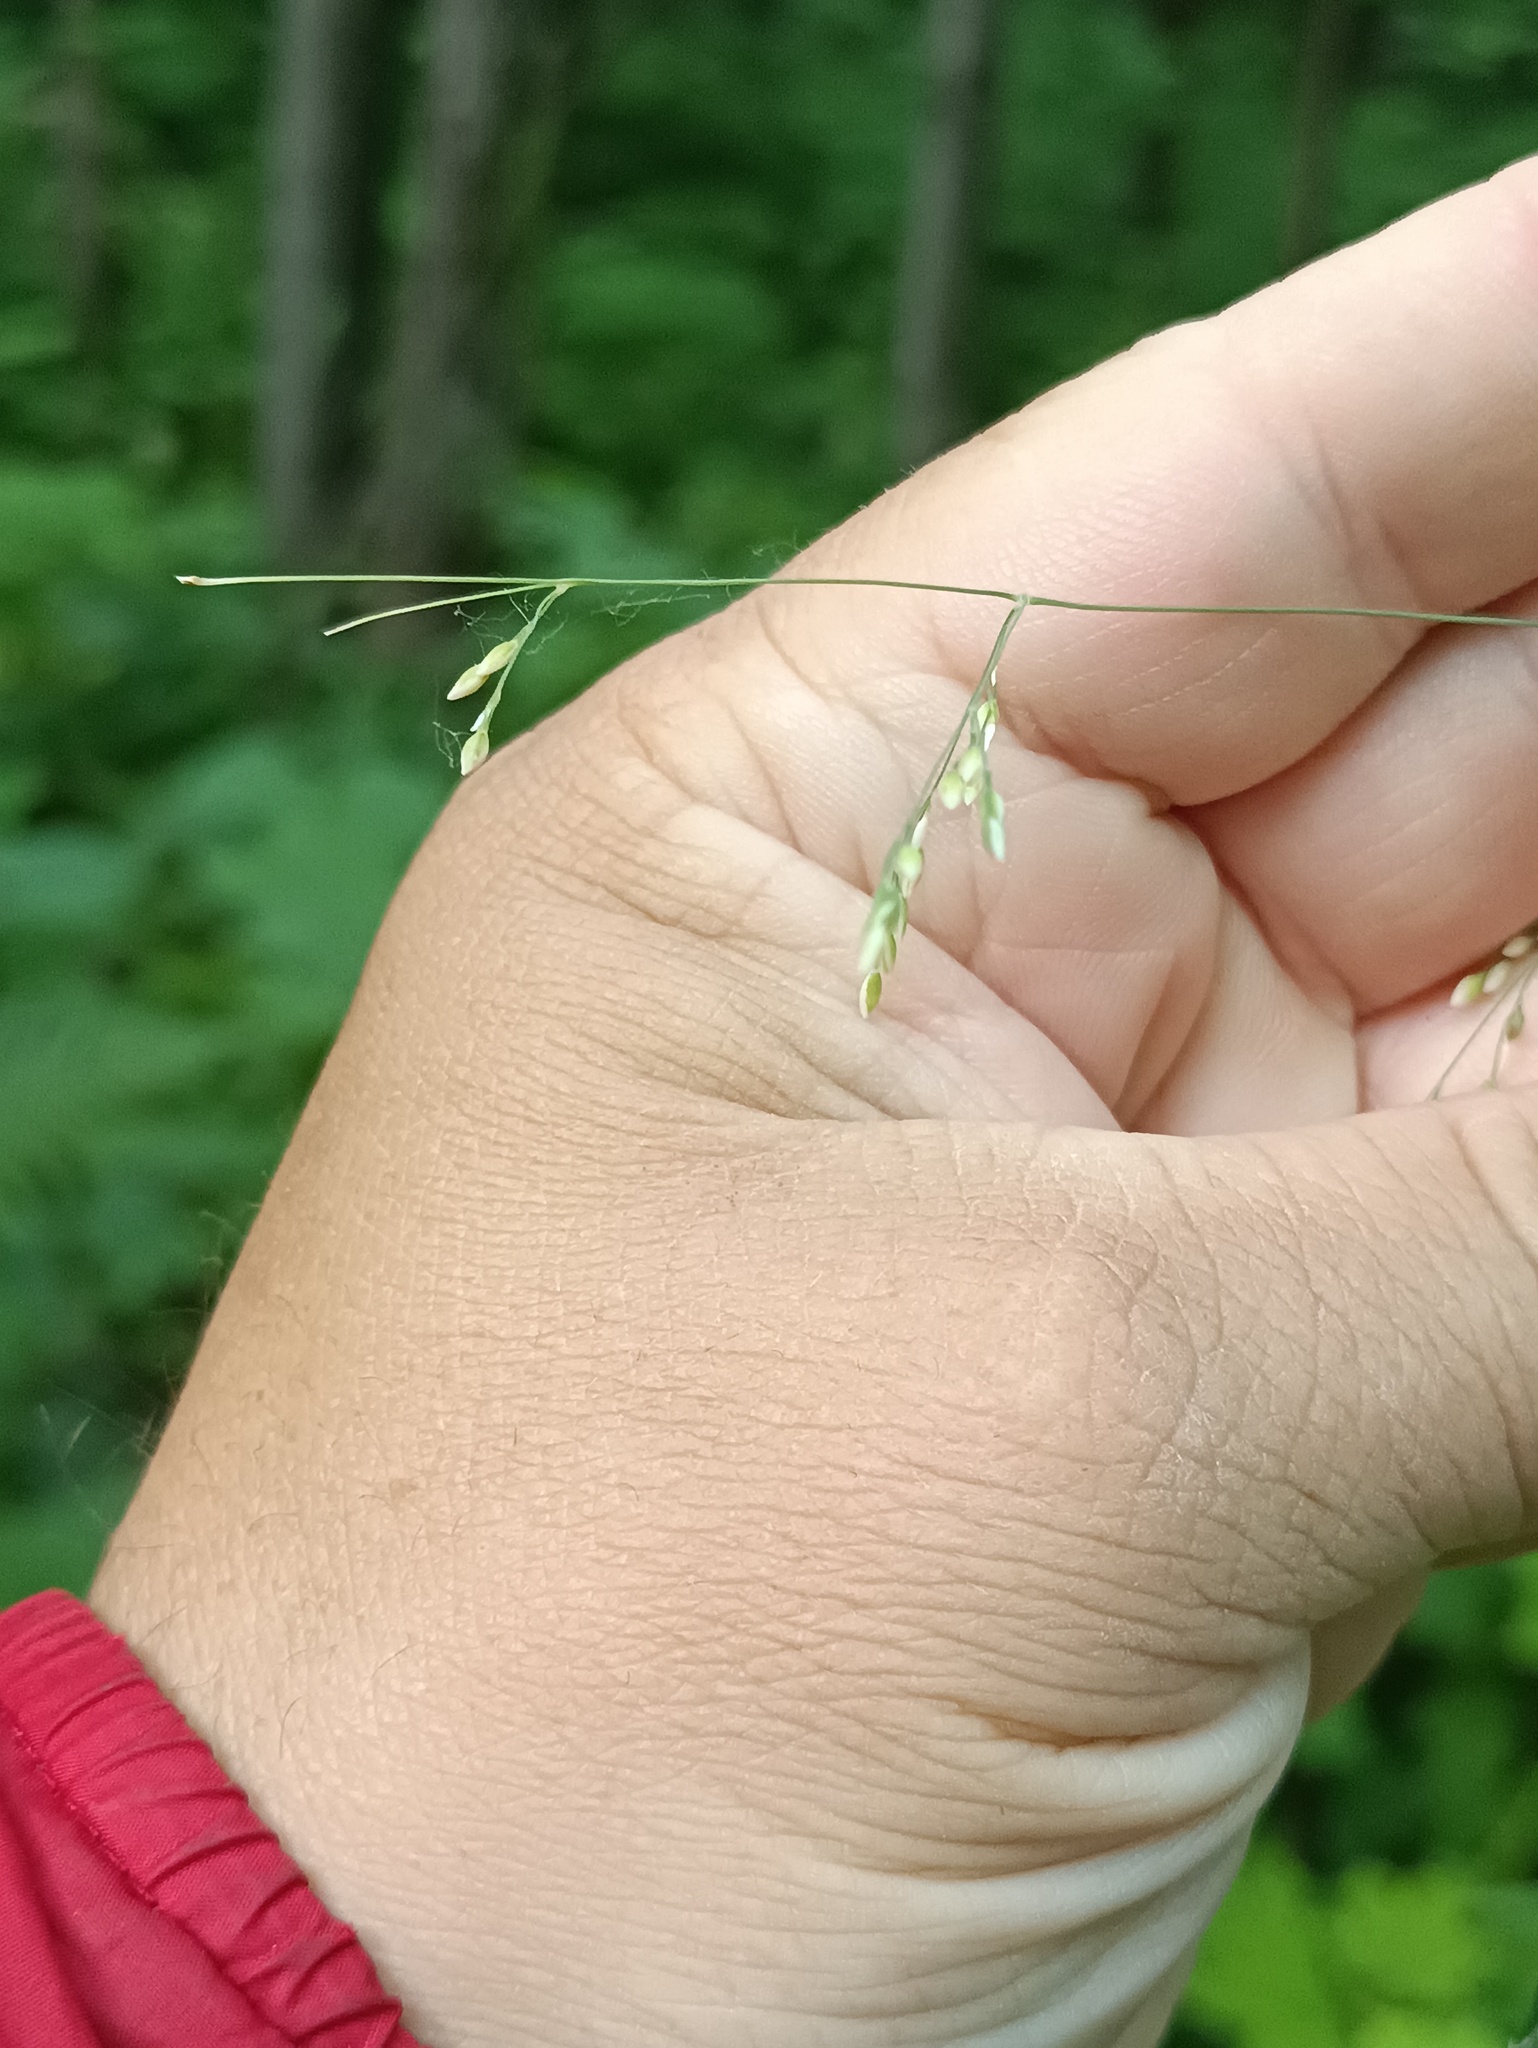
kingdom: Plantae
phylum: Tracheophyta
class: Liliopsida
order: Poales
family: Poaceae
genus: Milium
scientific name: Milium effusum
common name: Wood millet
